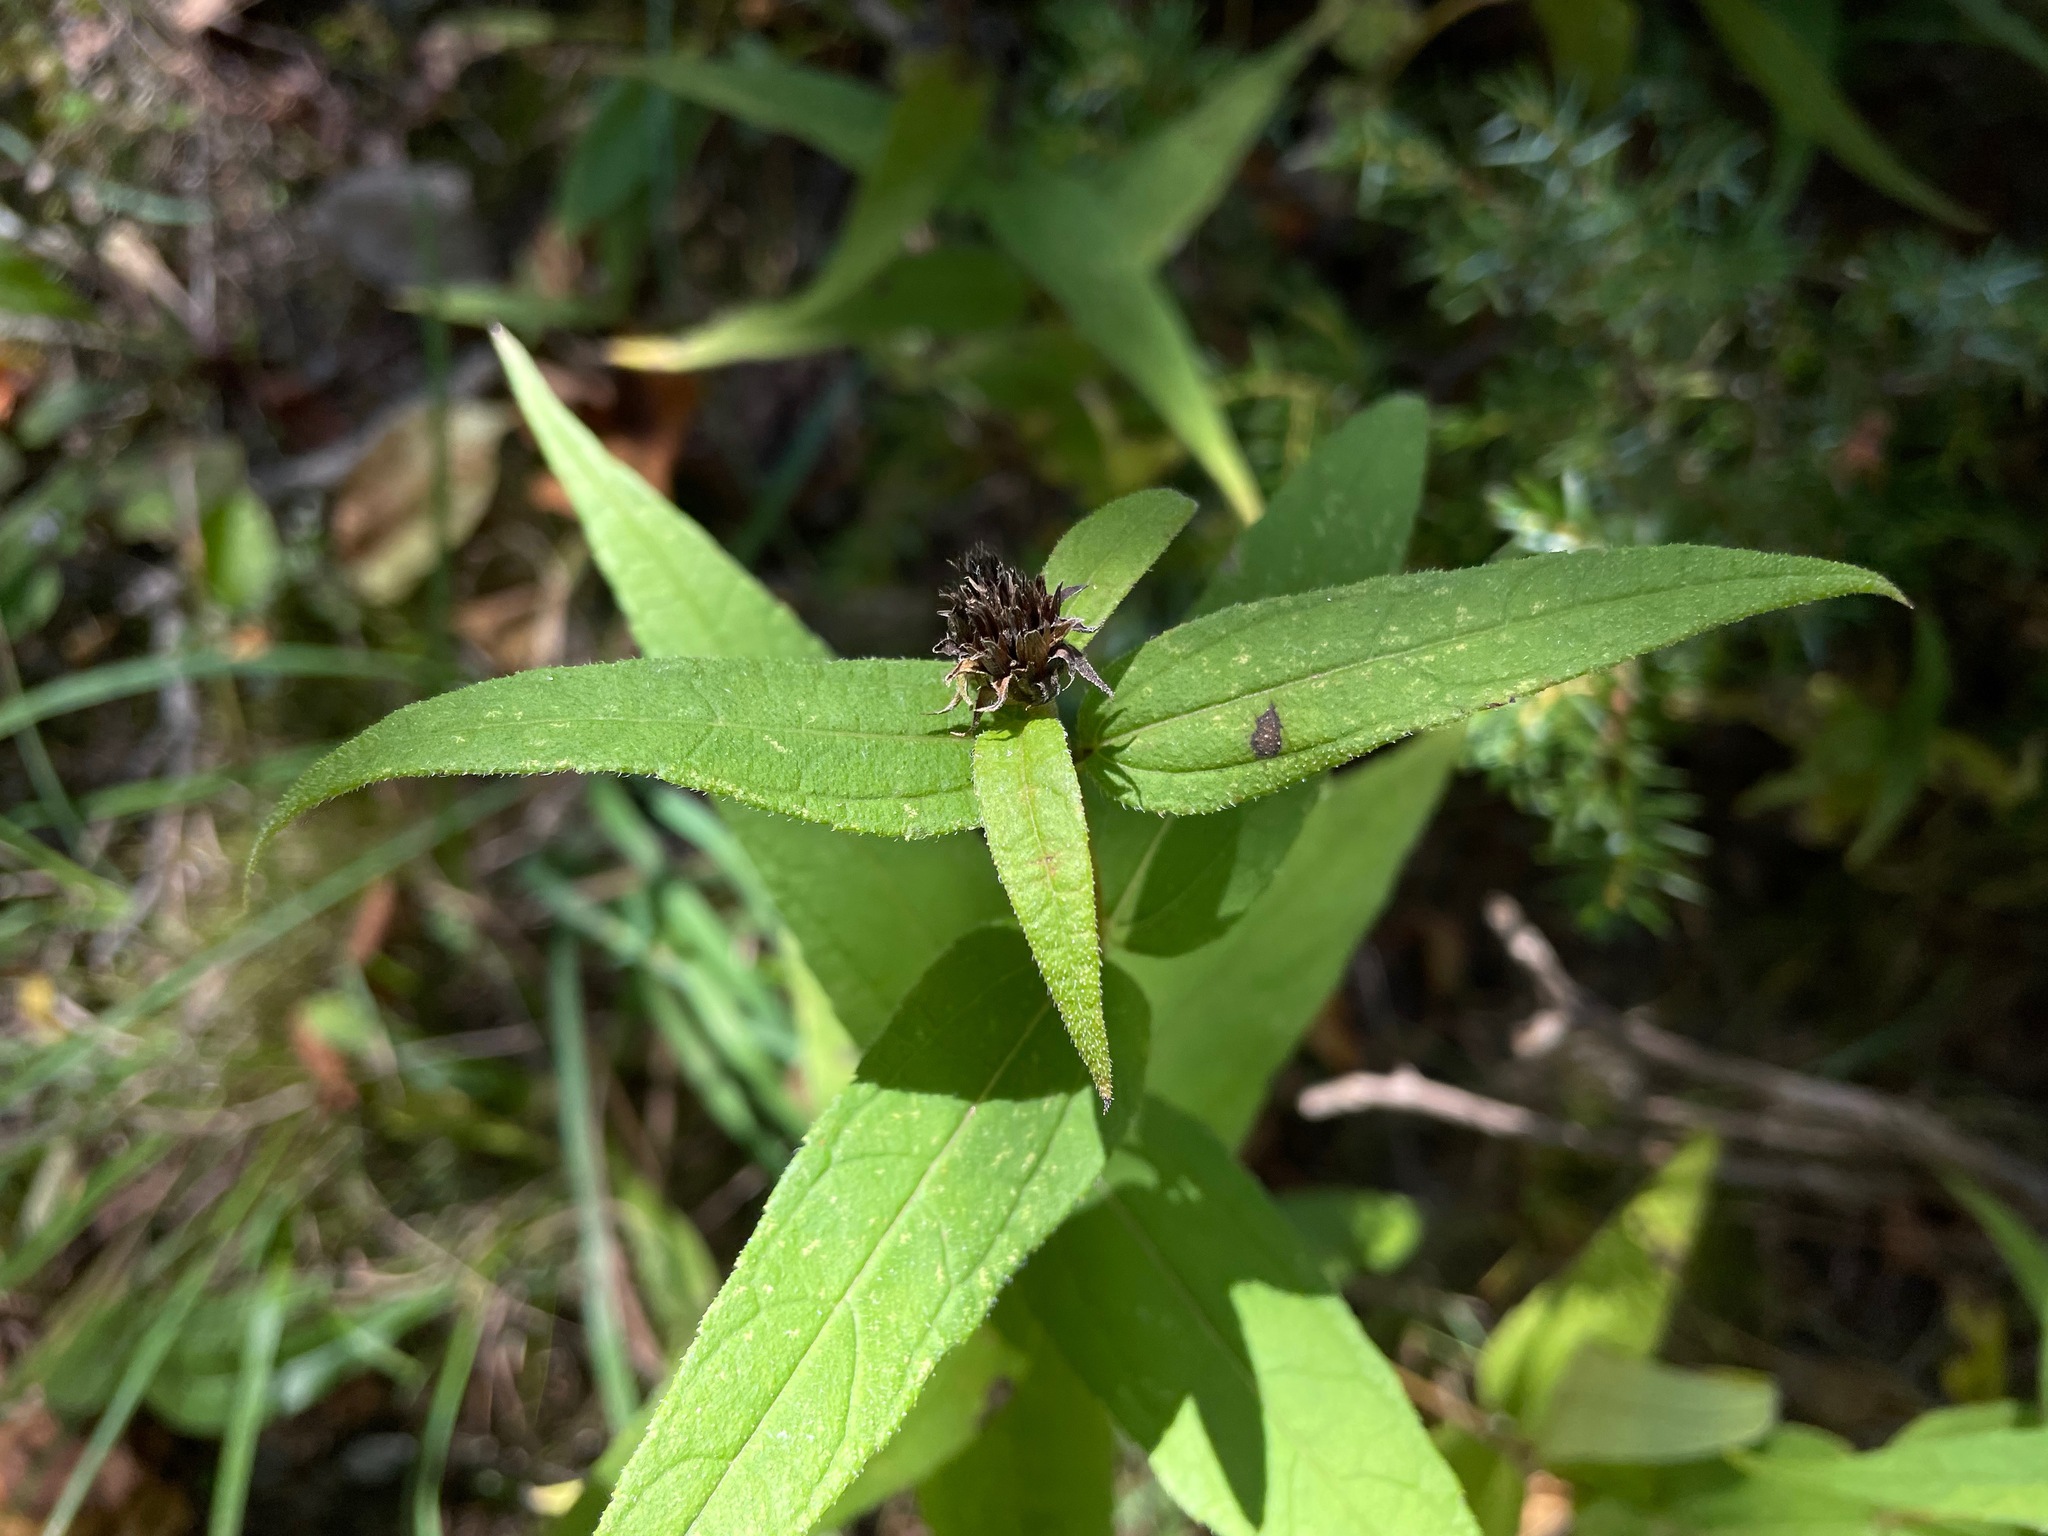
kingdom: Plantae
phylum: Tracheophyta
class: Magnoliopsida
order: Asterales
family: Asteraceae
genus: Helianthus
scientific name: Helianthus divaricatus
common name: Divergent sunflower
